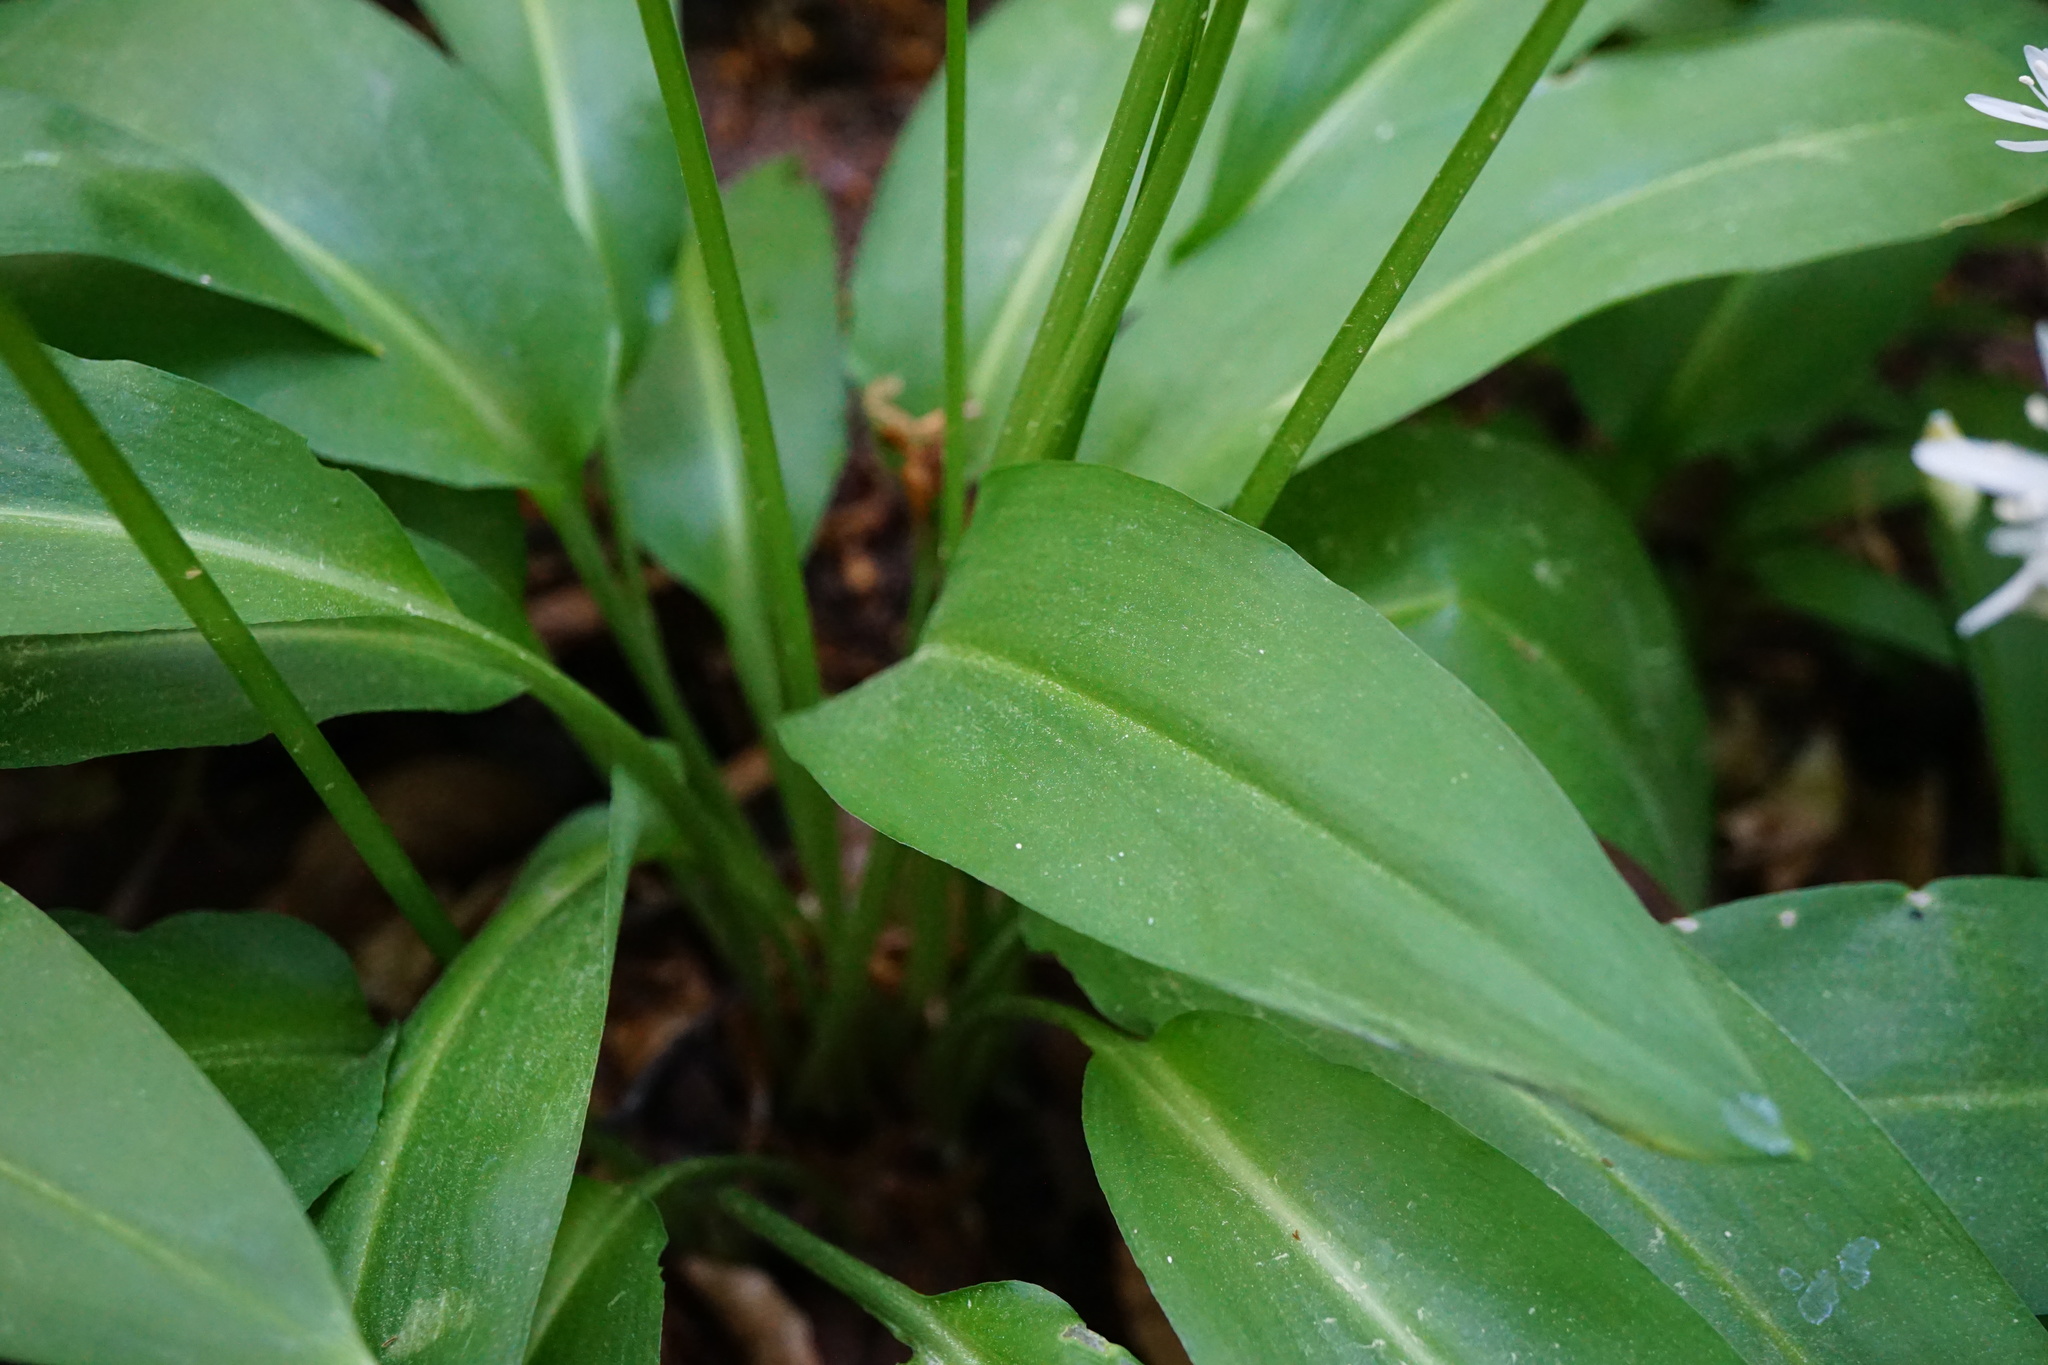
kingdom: Plantae
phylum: Tracheophyta
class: Liliopsida
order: Asparagales
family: Amaryllidaceae
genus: Allium
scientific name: Allium ursinum
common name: Ramsons
